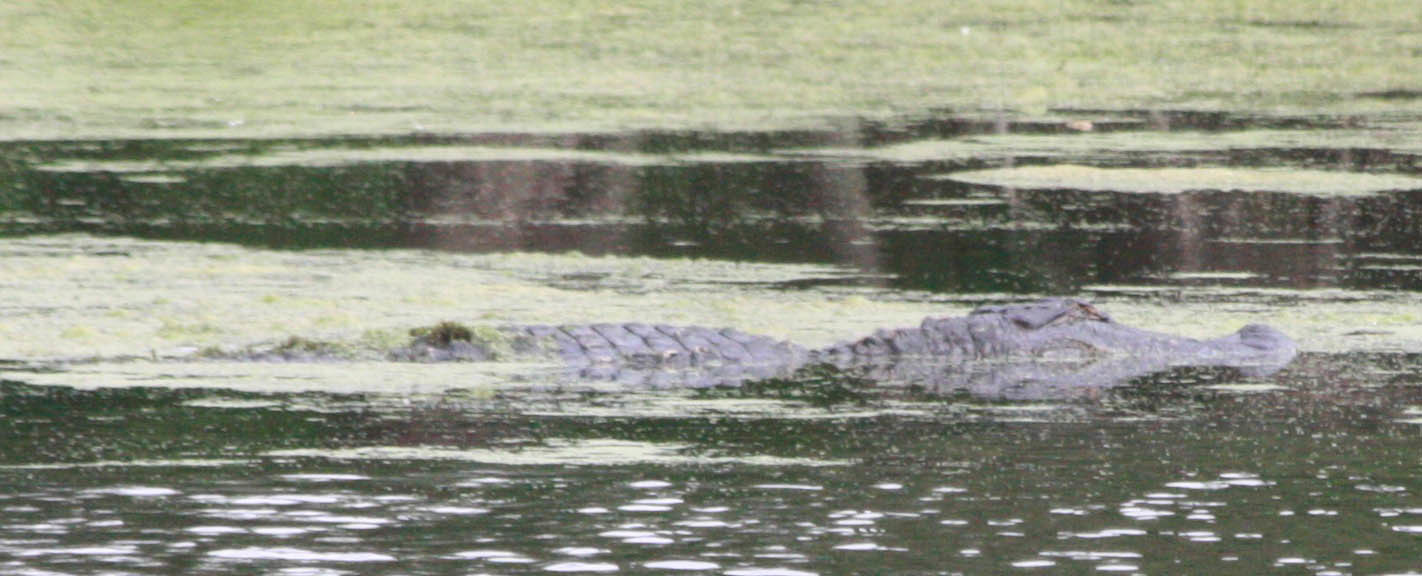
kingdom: Animalia
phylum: Chordata
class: Crocodylia
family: Alligatoridae
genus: Alligator
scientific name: Alligator mississippiensis
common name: American alligator
